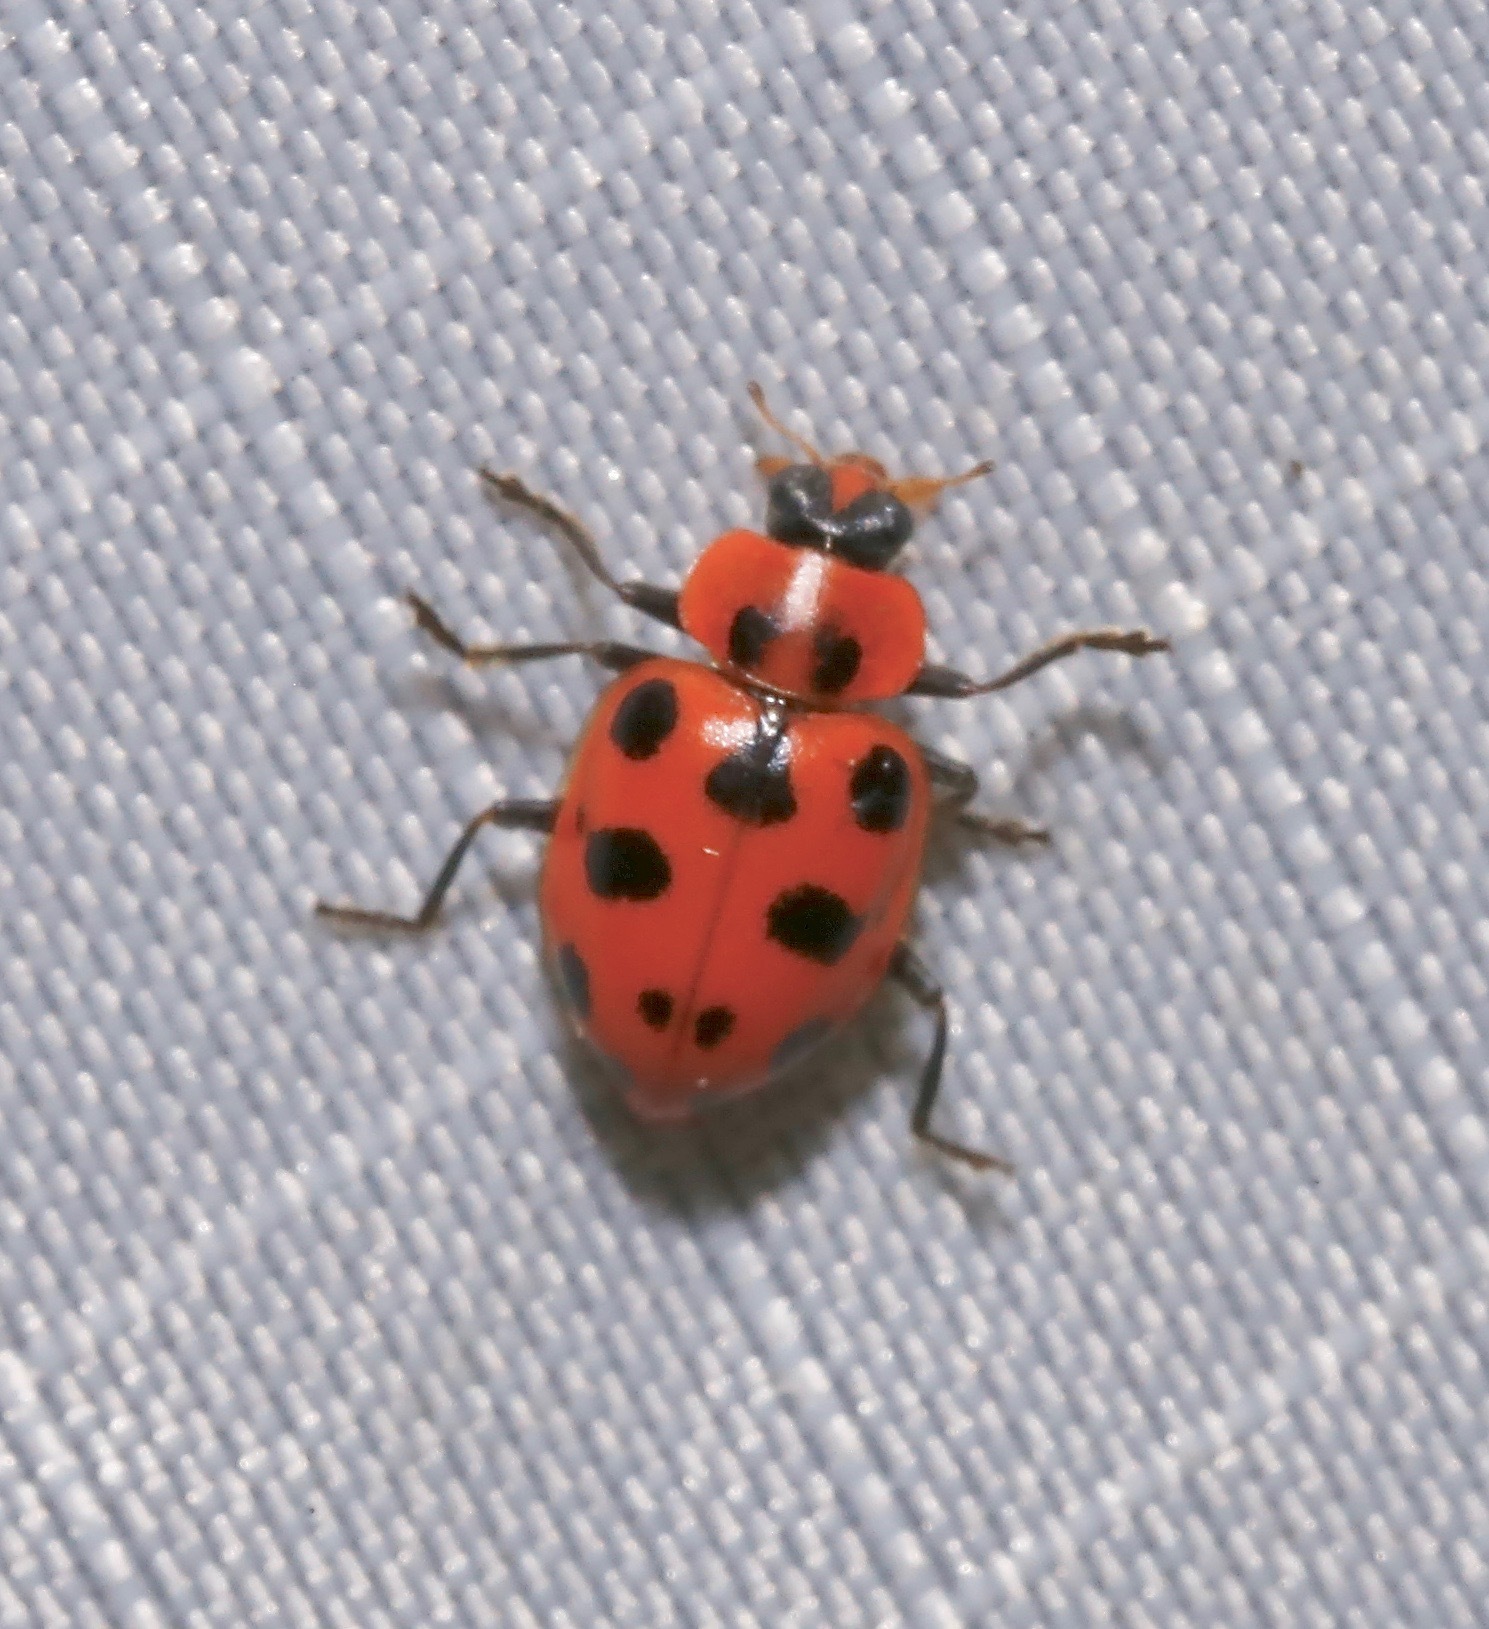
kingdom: Animalia
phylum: Arthropoda
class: Insecta
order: Coleoptera
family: Coccinellidae
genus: Coleomegilla
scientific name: Coleomegilla maculata
